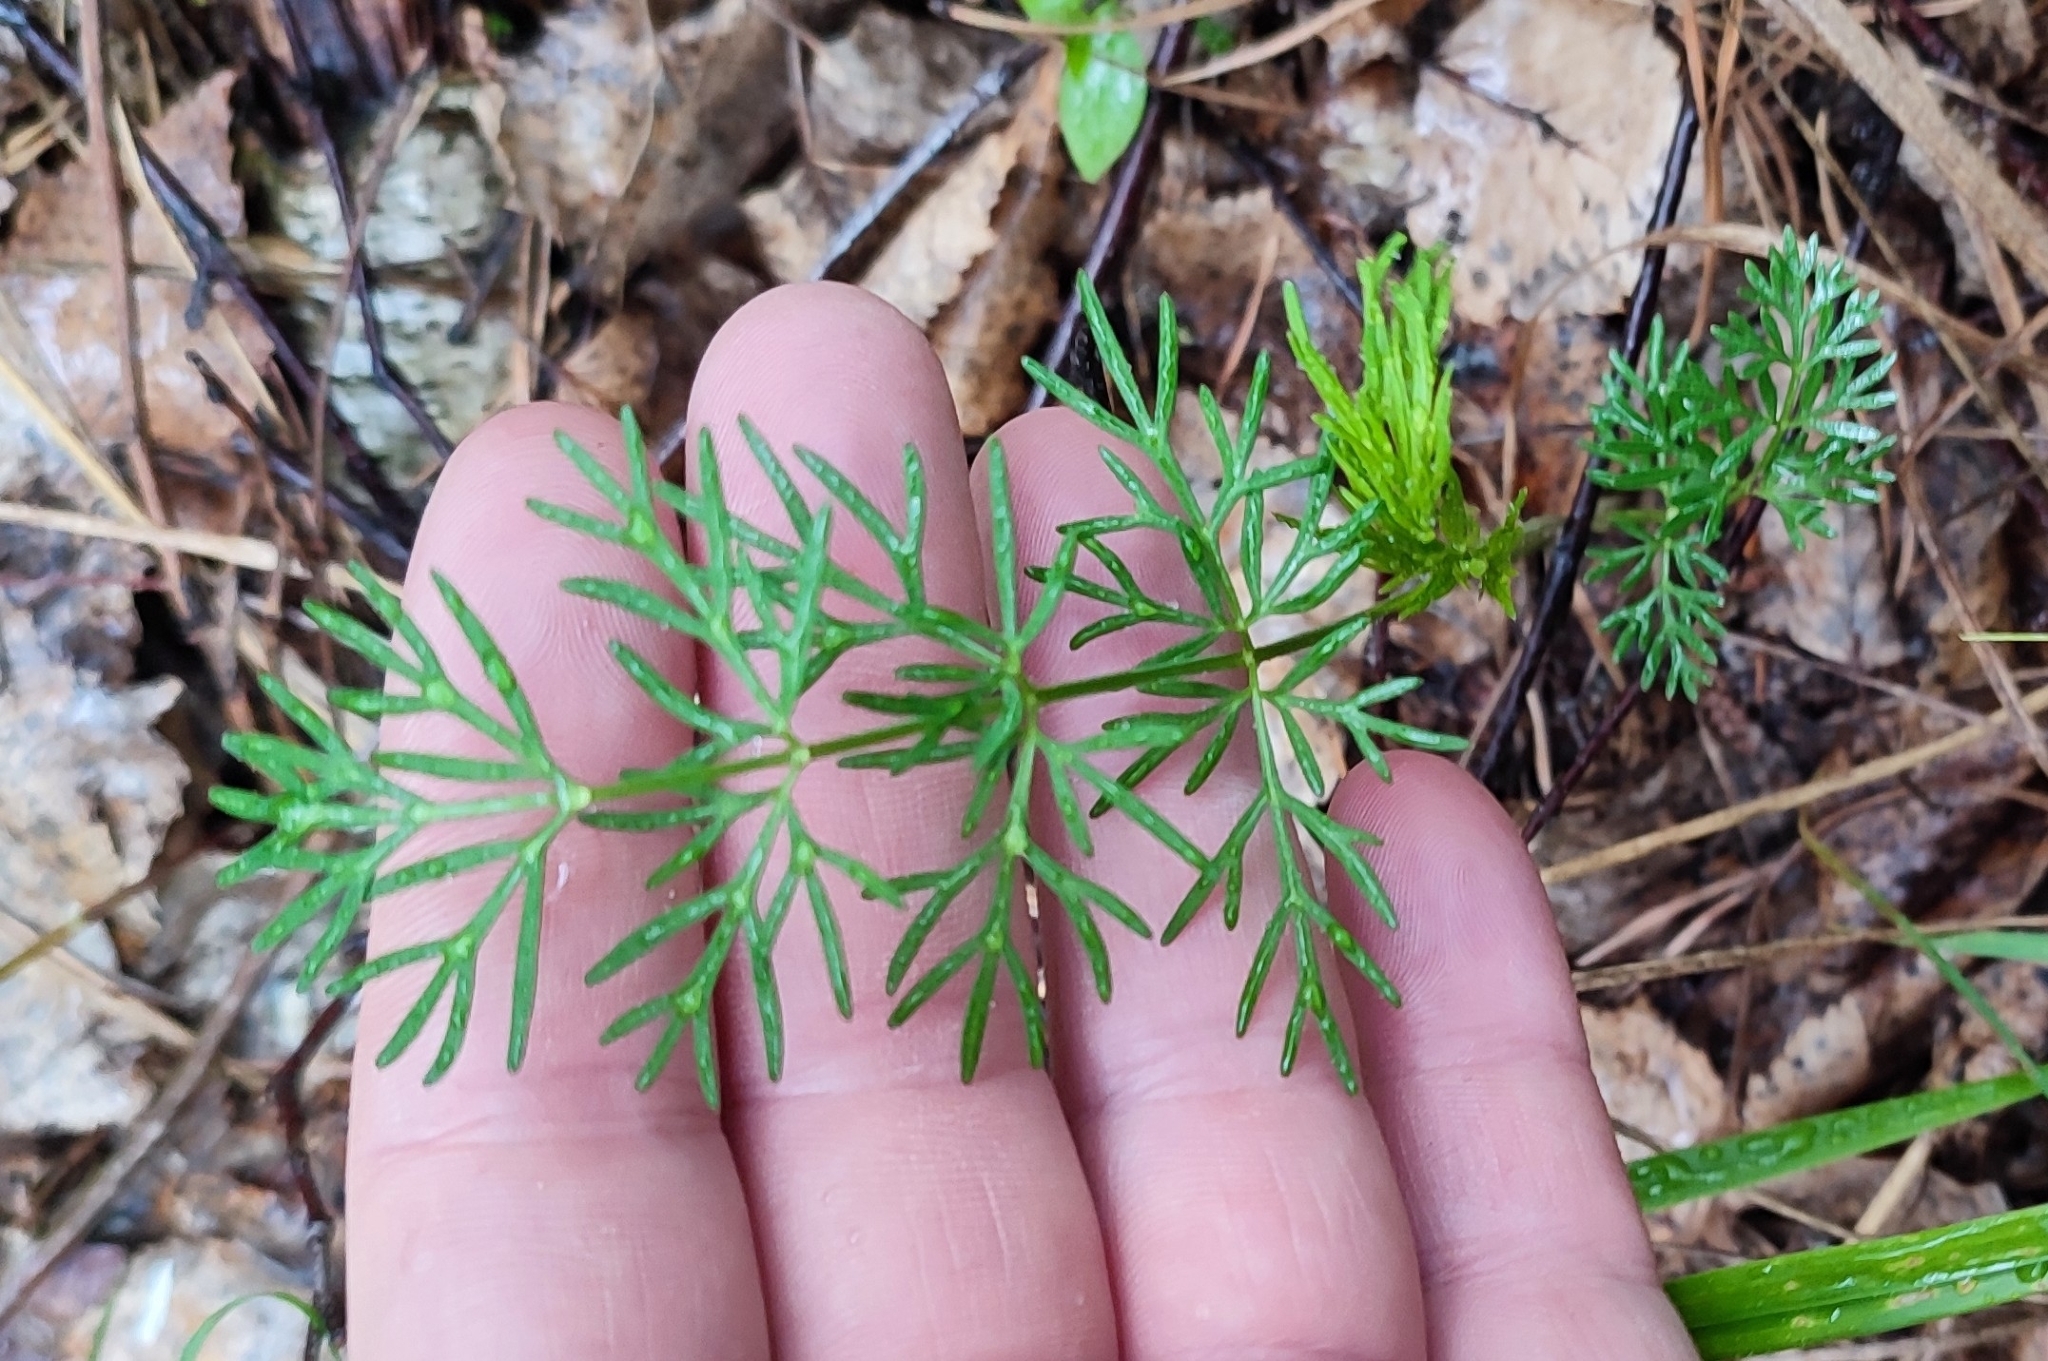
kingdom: Plantae
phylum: Tracheophyta
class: Magnoliopsida
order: Apiales
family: Apiaceae
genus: Kadenia
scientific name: Kadenia dubia
